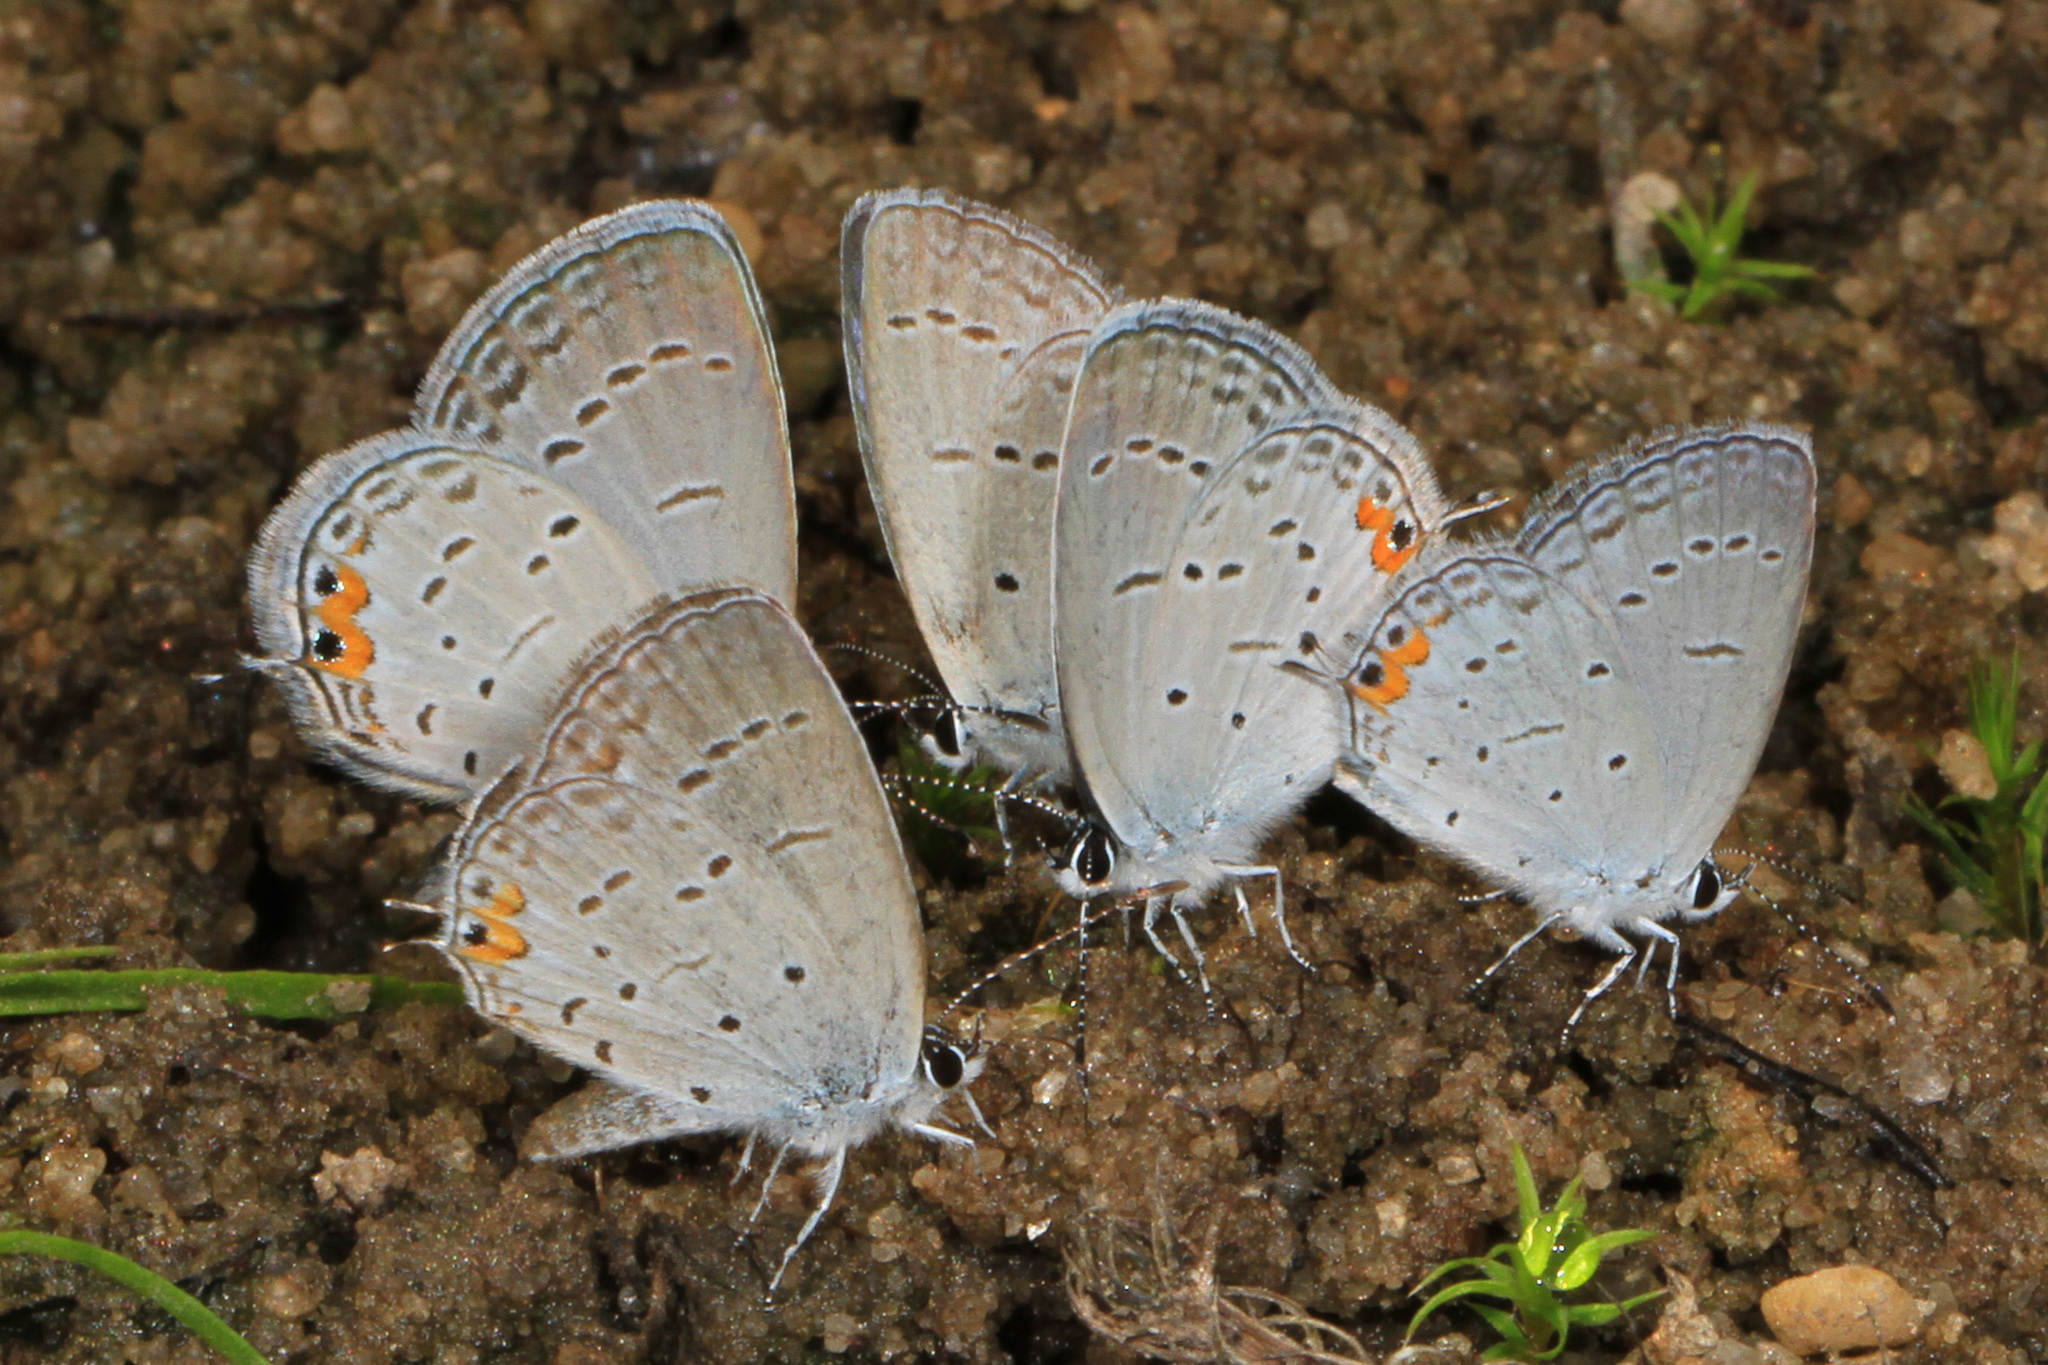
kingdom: Animalia
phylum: Arthropoda
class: Insecta
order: Lepidoptera
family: Lycaenidae
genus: Elkalyce
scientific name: Elkalyce comyntas
